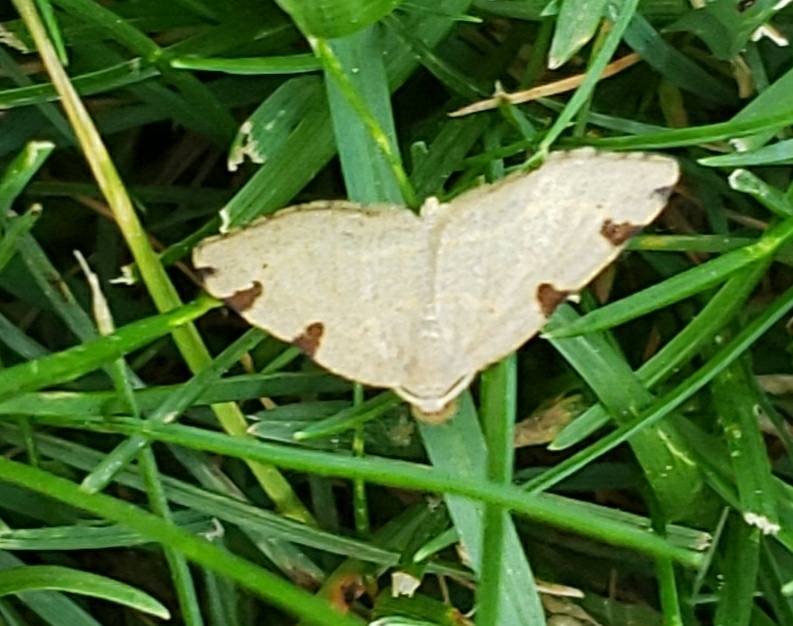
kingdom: Animalia
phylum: Arthropoda
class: Insecta
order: Lepidoptera
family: Geometridae
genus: Heterophleps
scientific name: Heterophleps triguttaria
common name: Three-spotted fillip
